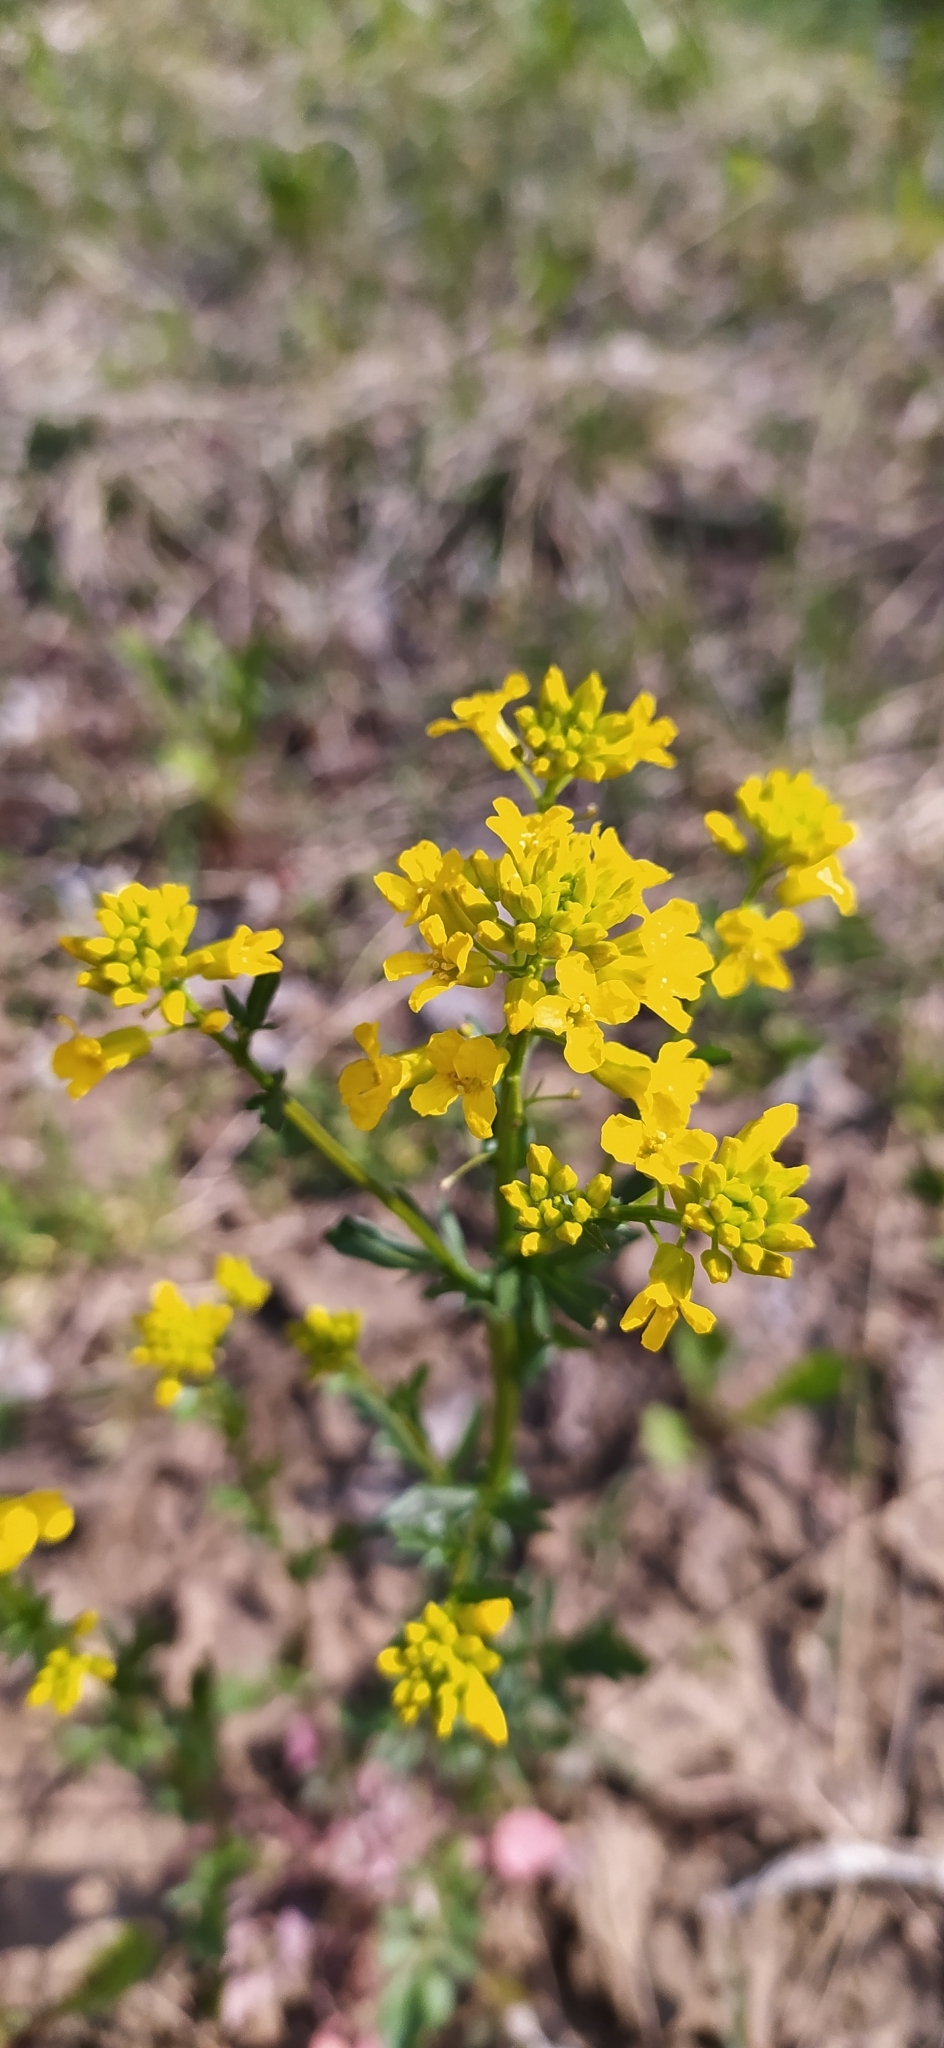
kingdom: Plantae
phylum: Tracheophyta
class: Magnoliopsida
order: Brassicales
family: Brassicaceae
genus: Barbarea
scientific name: Barbarea vulgaris
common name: Cressy-greens
